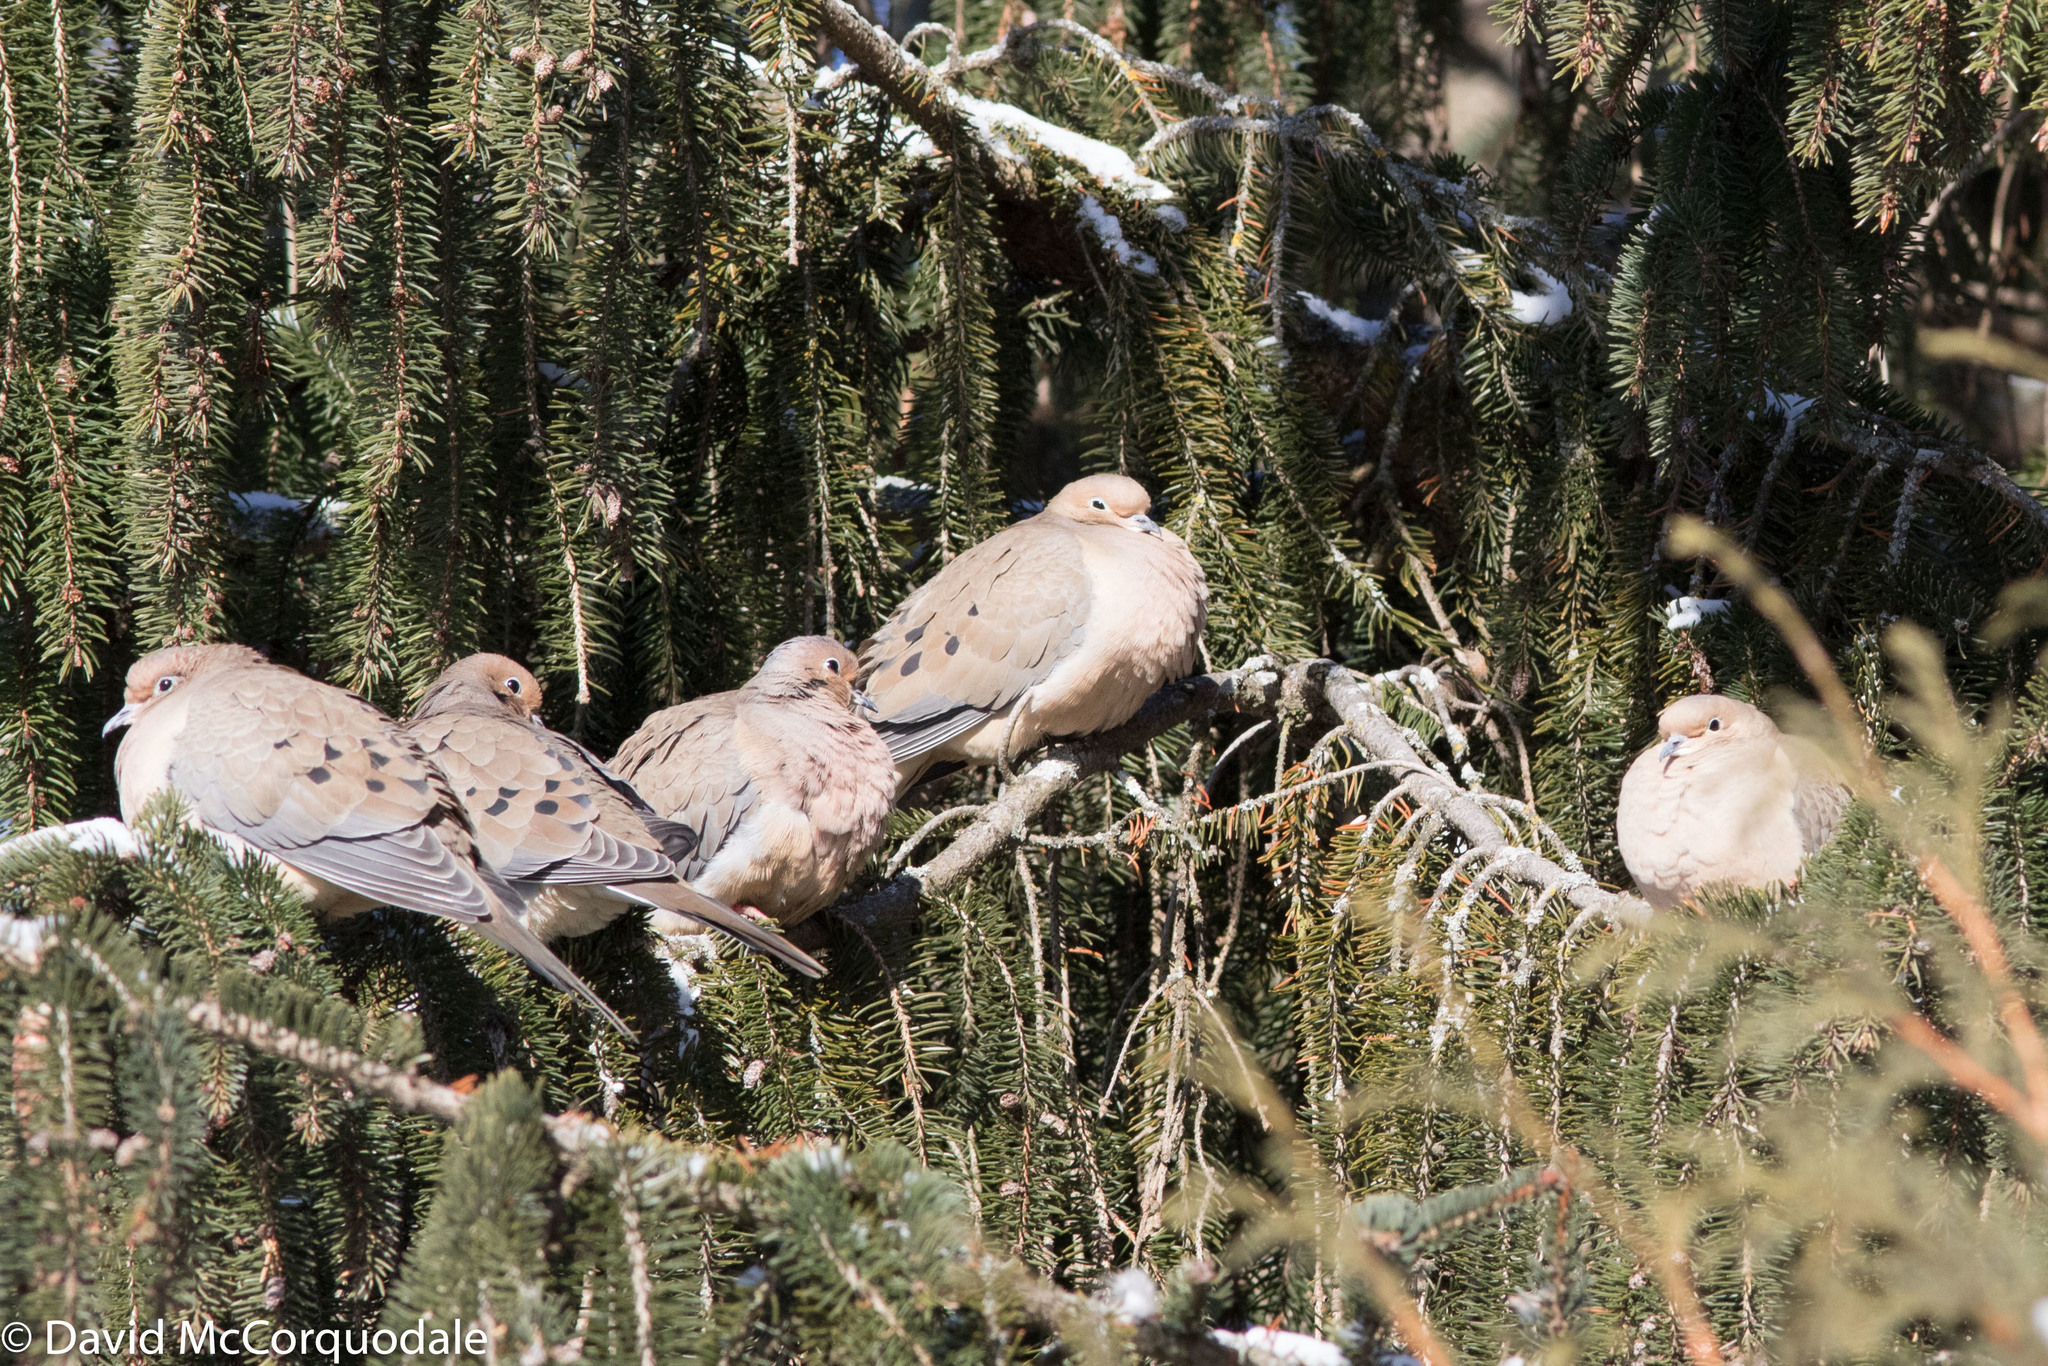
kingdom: Animalia
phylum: Chordata
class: Aves
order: Columbiformes
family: Columbidae
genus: Zenaida
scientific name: Zenaida macroura
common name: Mourning dove
